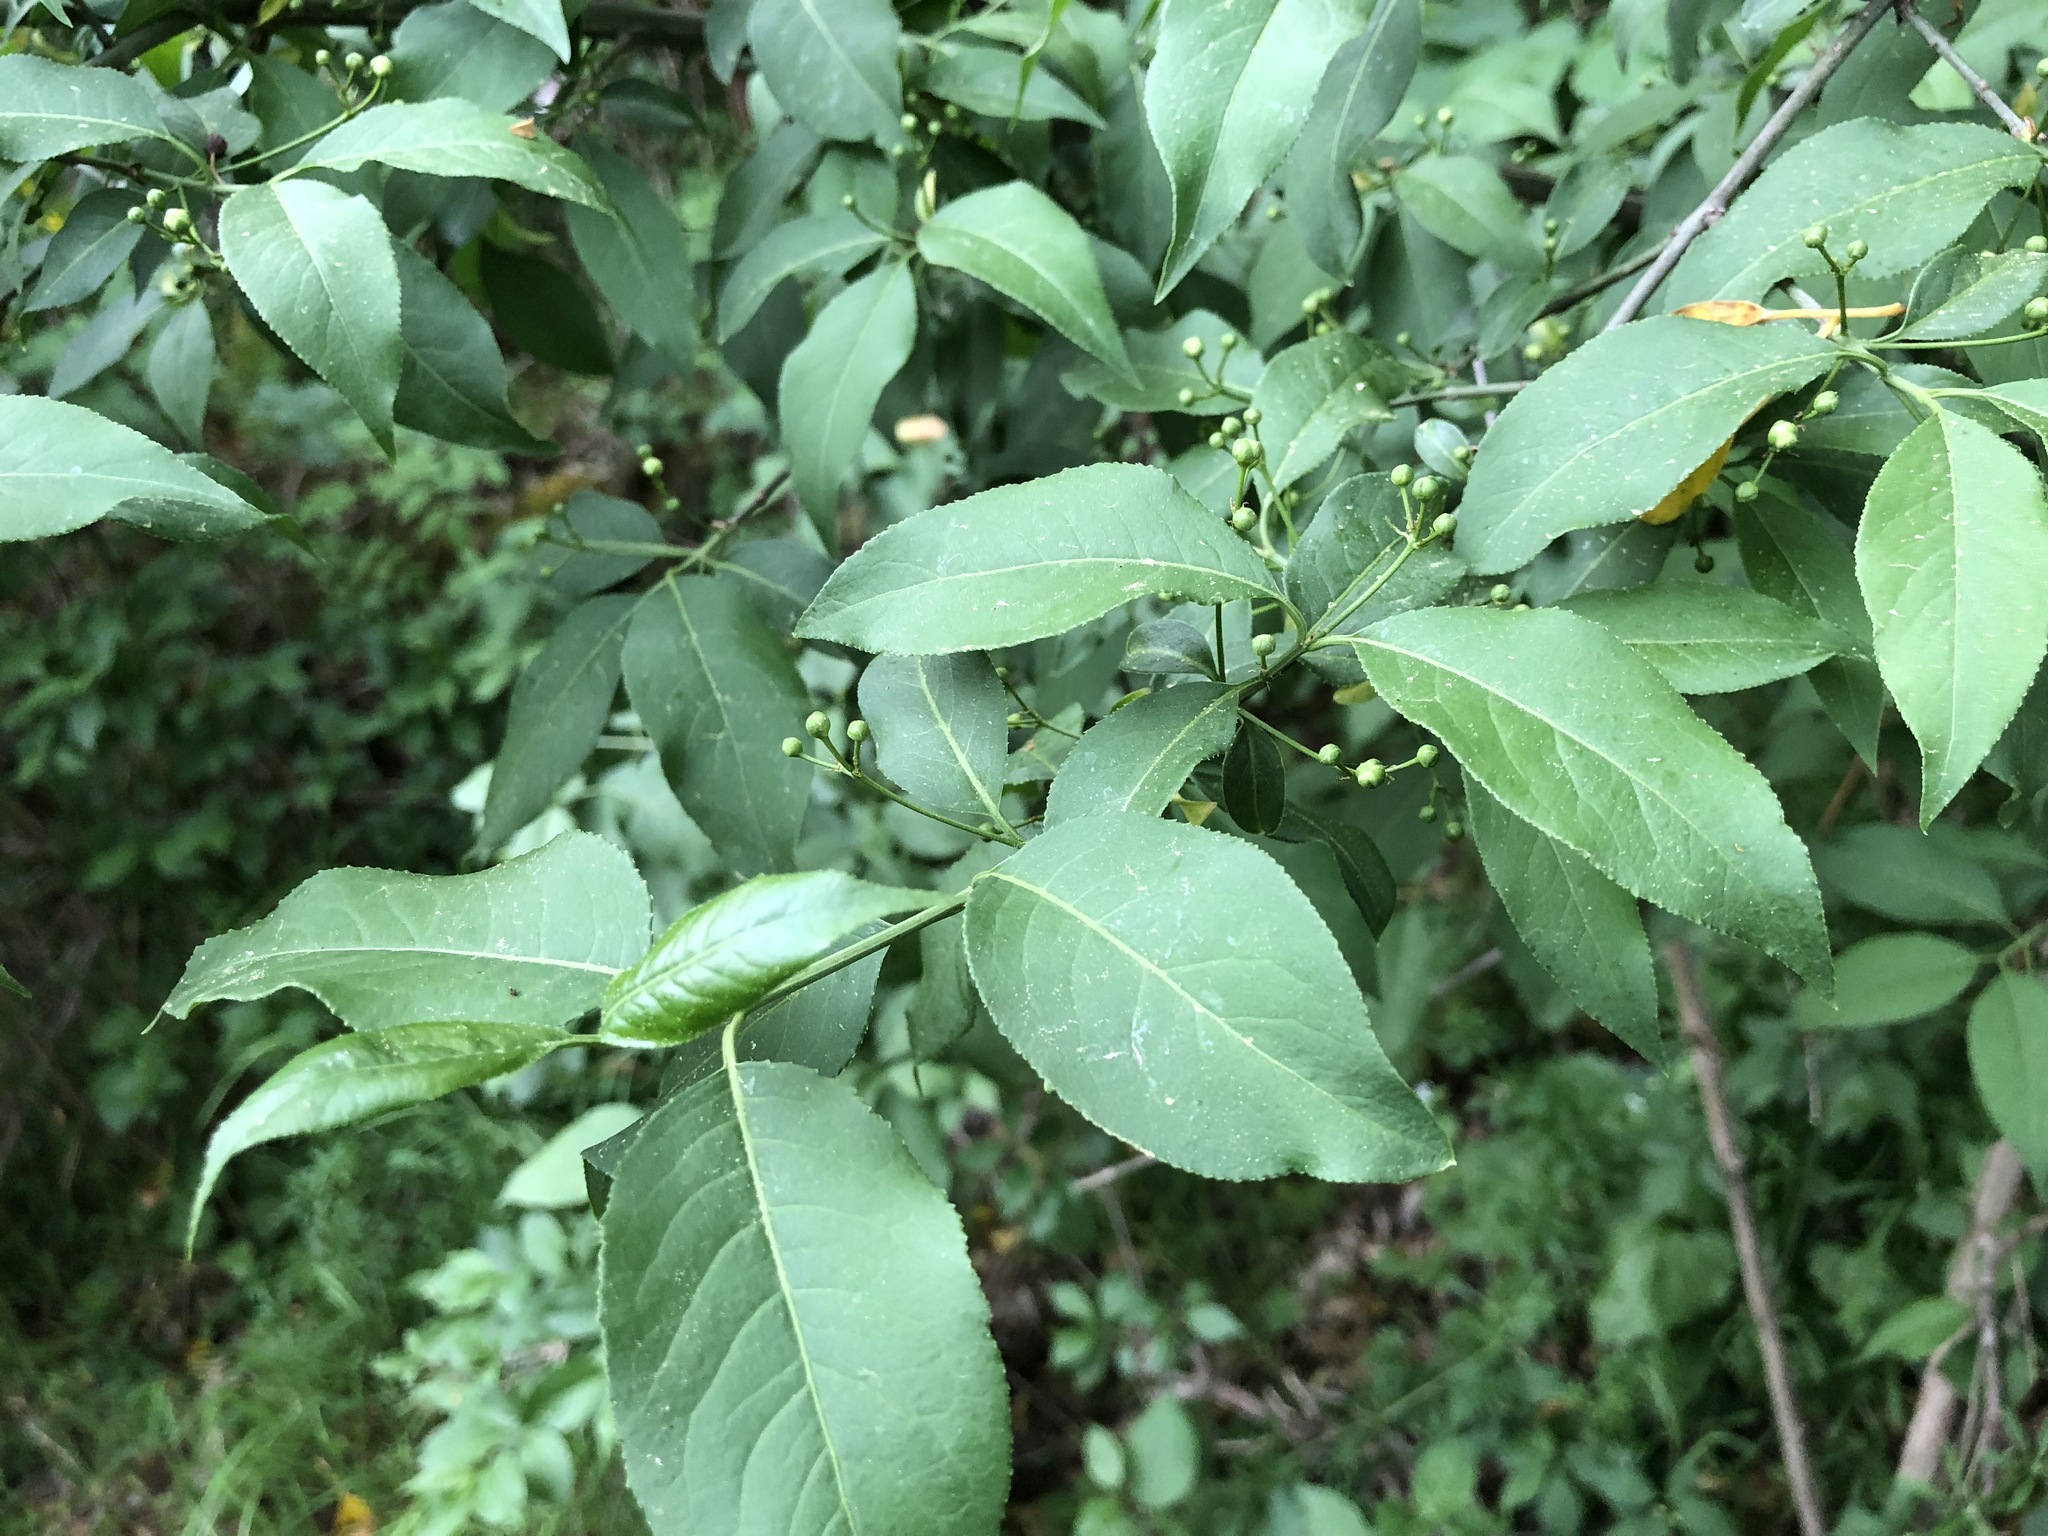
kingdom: Plantae
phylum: Tracheophyta
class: Magnoliopsida
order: Celastrales
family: Celastraceae
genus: Euonymus
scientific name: Euonymus europaeus
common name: Spindle
